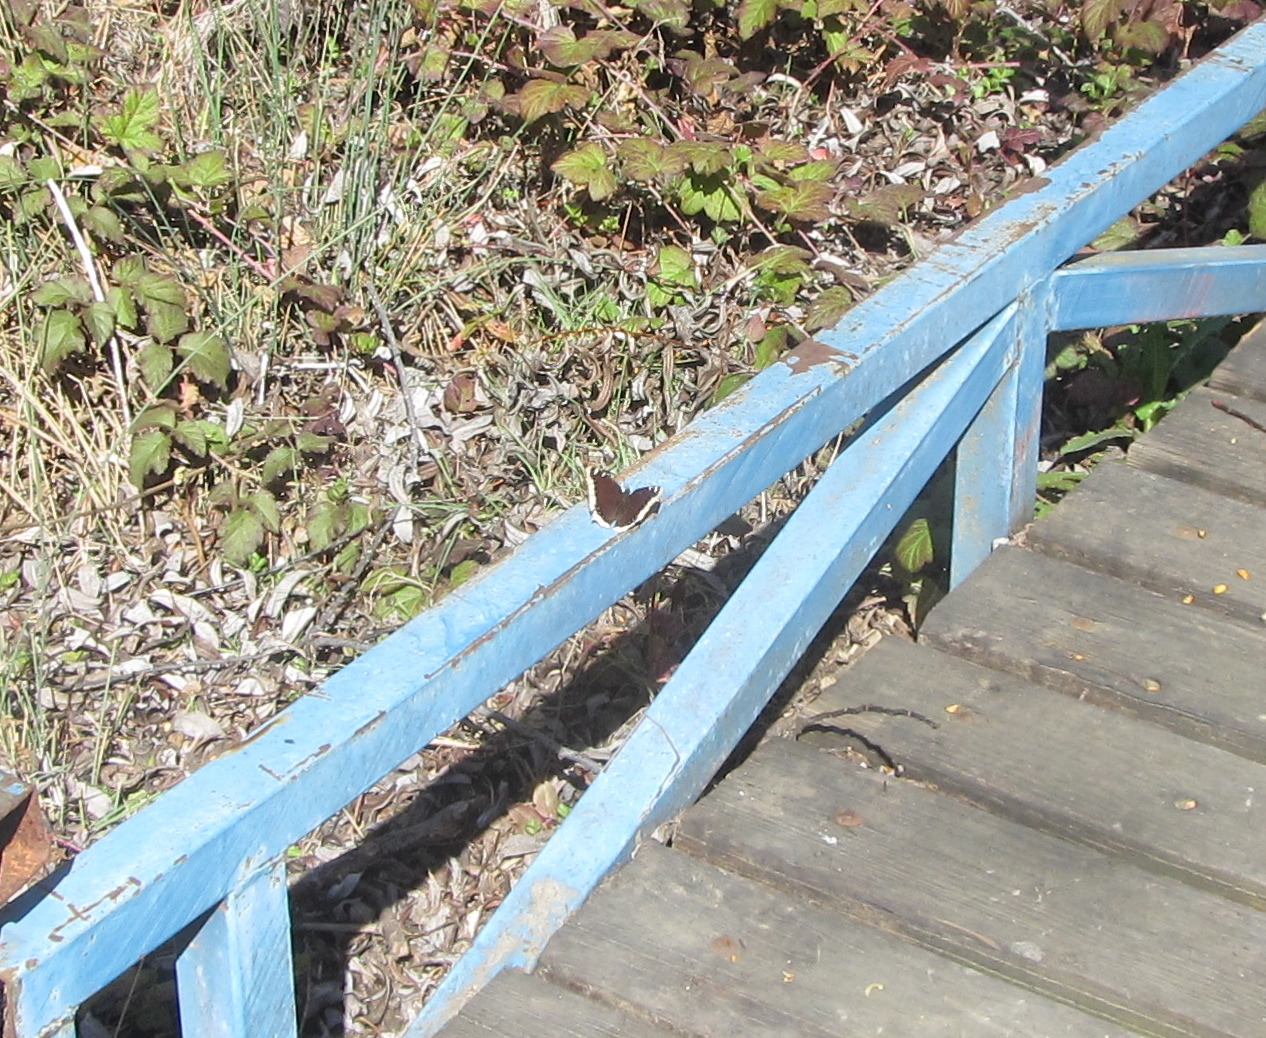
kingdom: Animalia
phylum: Arthropoda
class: Insecta
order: Lepidoptera
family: Nymphalidae
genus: Nymphalis
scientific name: Nymphalis antiopa
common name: Camberwell beauty
